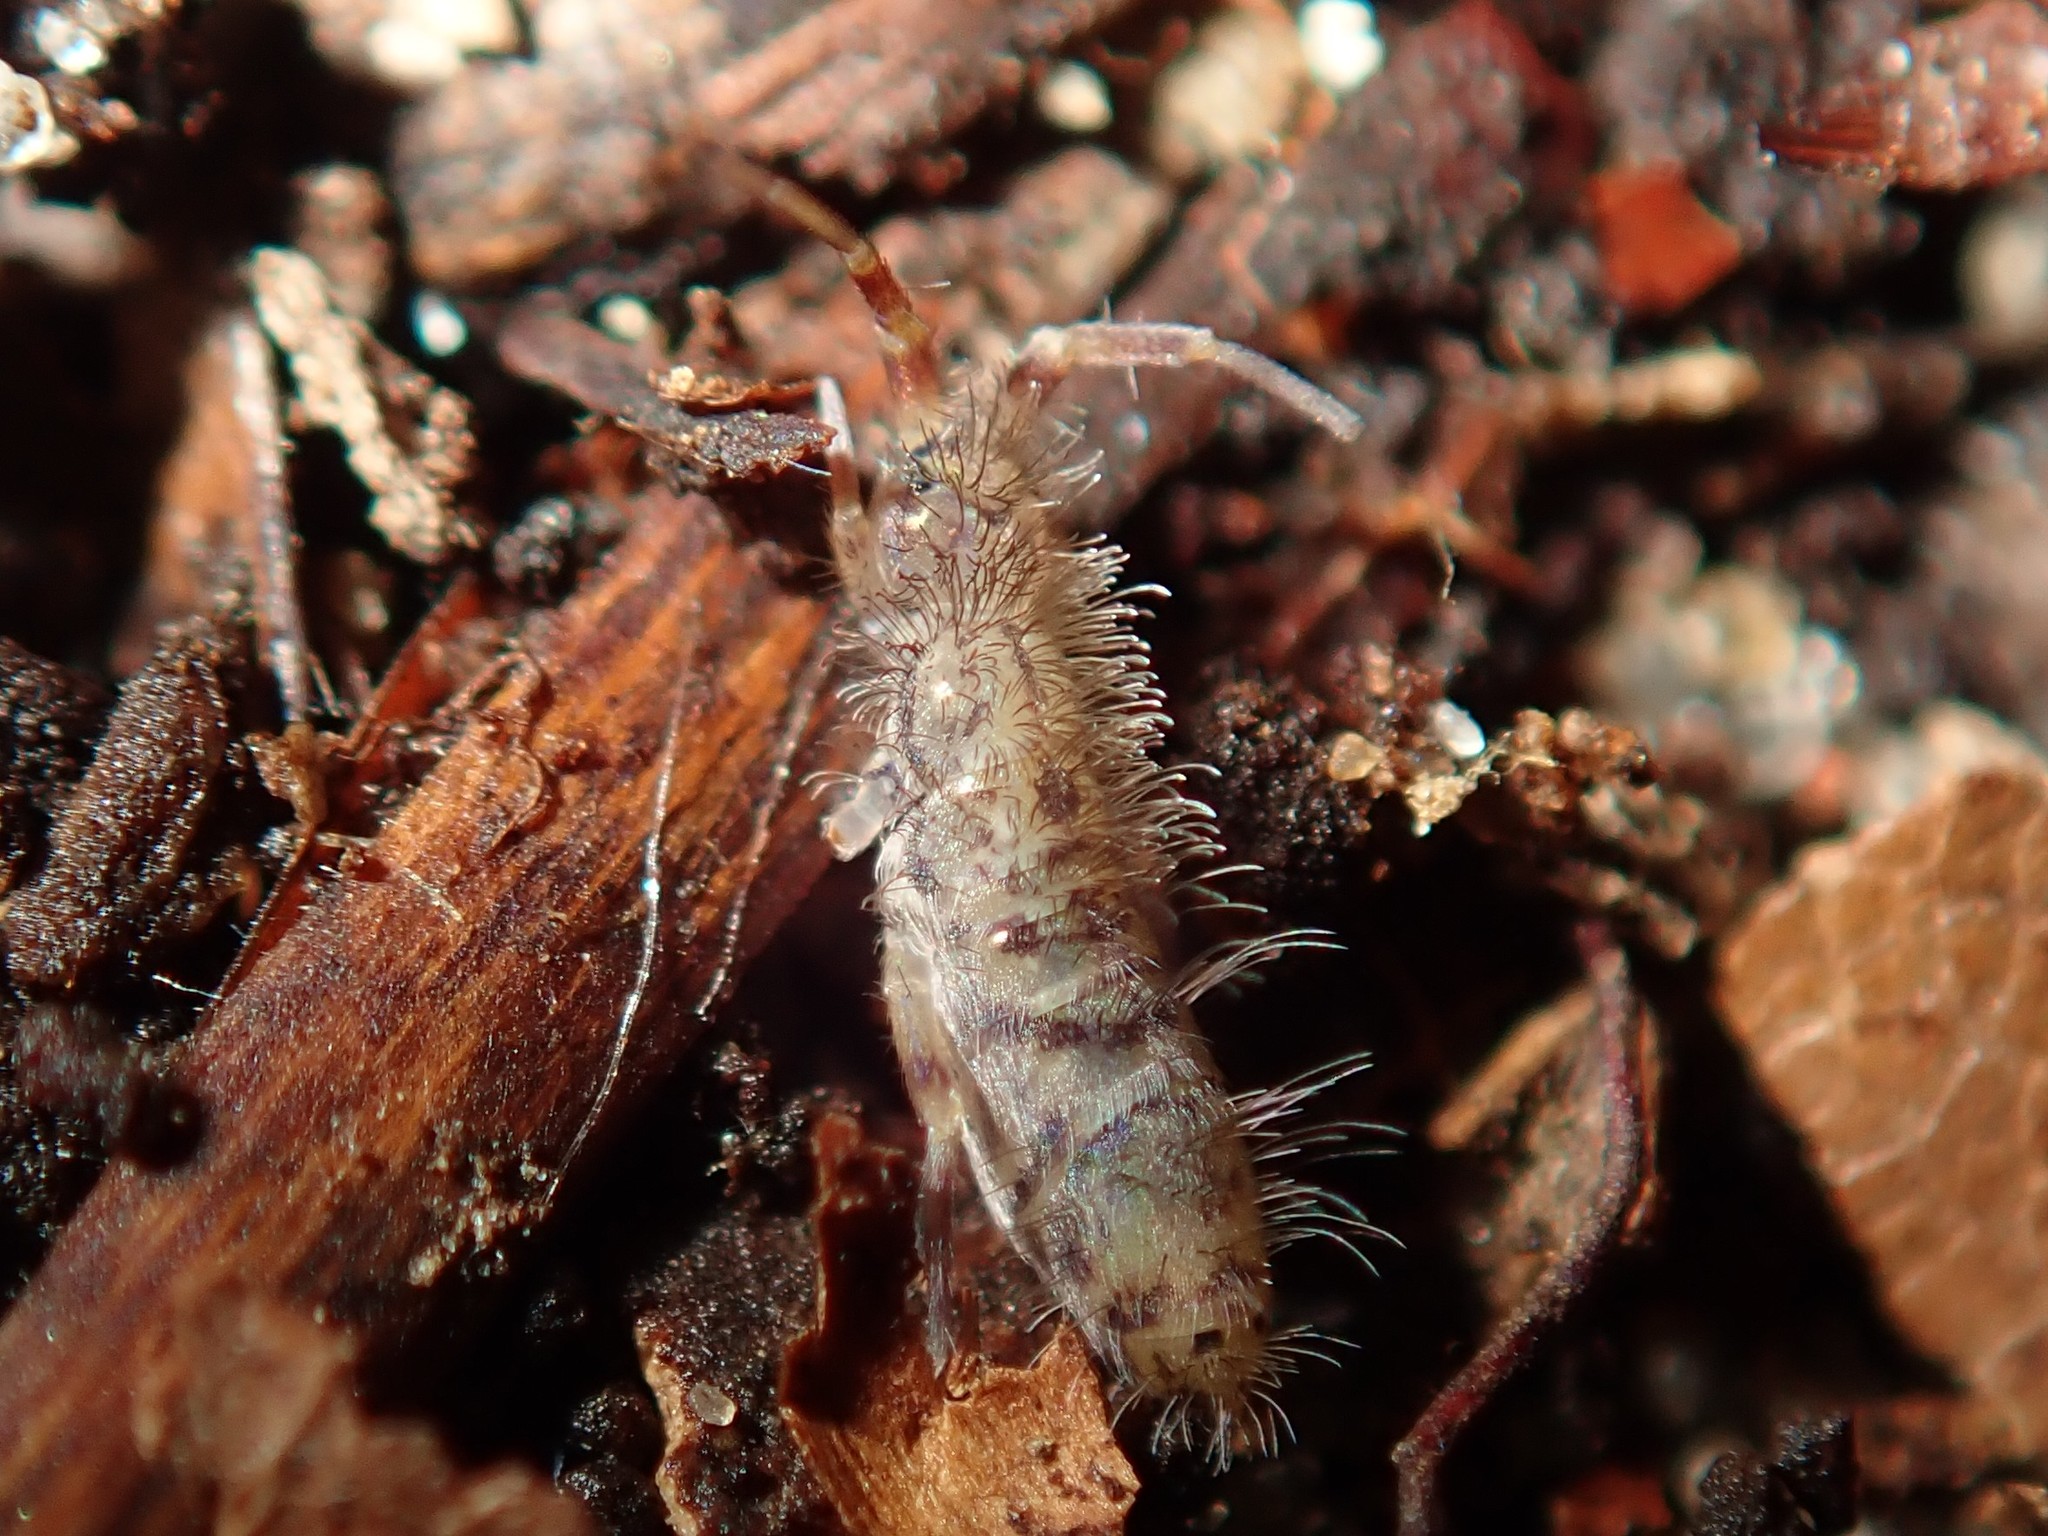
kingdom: Animalia
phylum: Arthropoda
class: Collembola
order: Entomobryomorpha
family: Orchesellidae
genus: Orchesella
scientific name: Orchesella villosa
